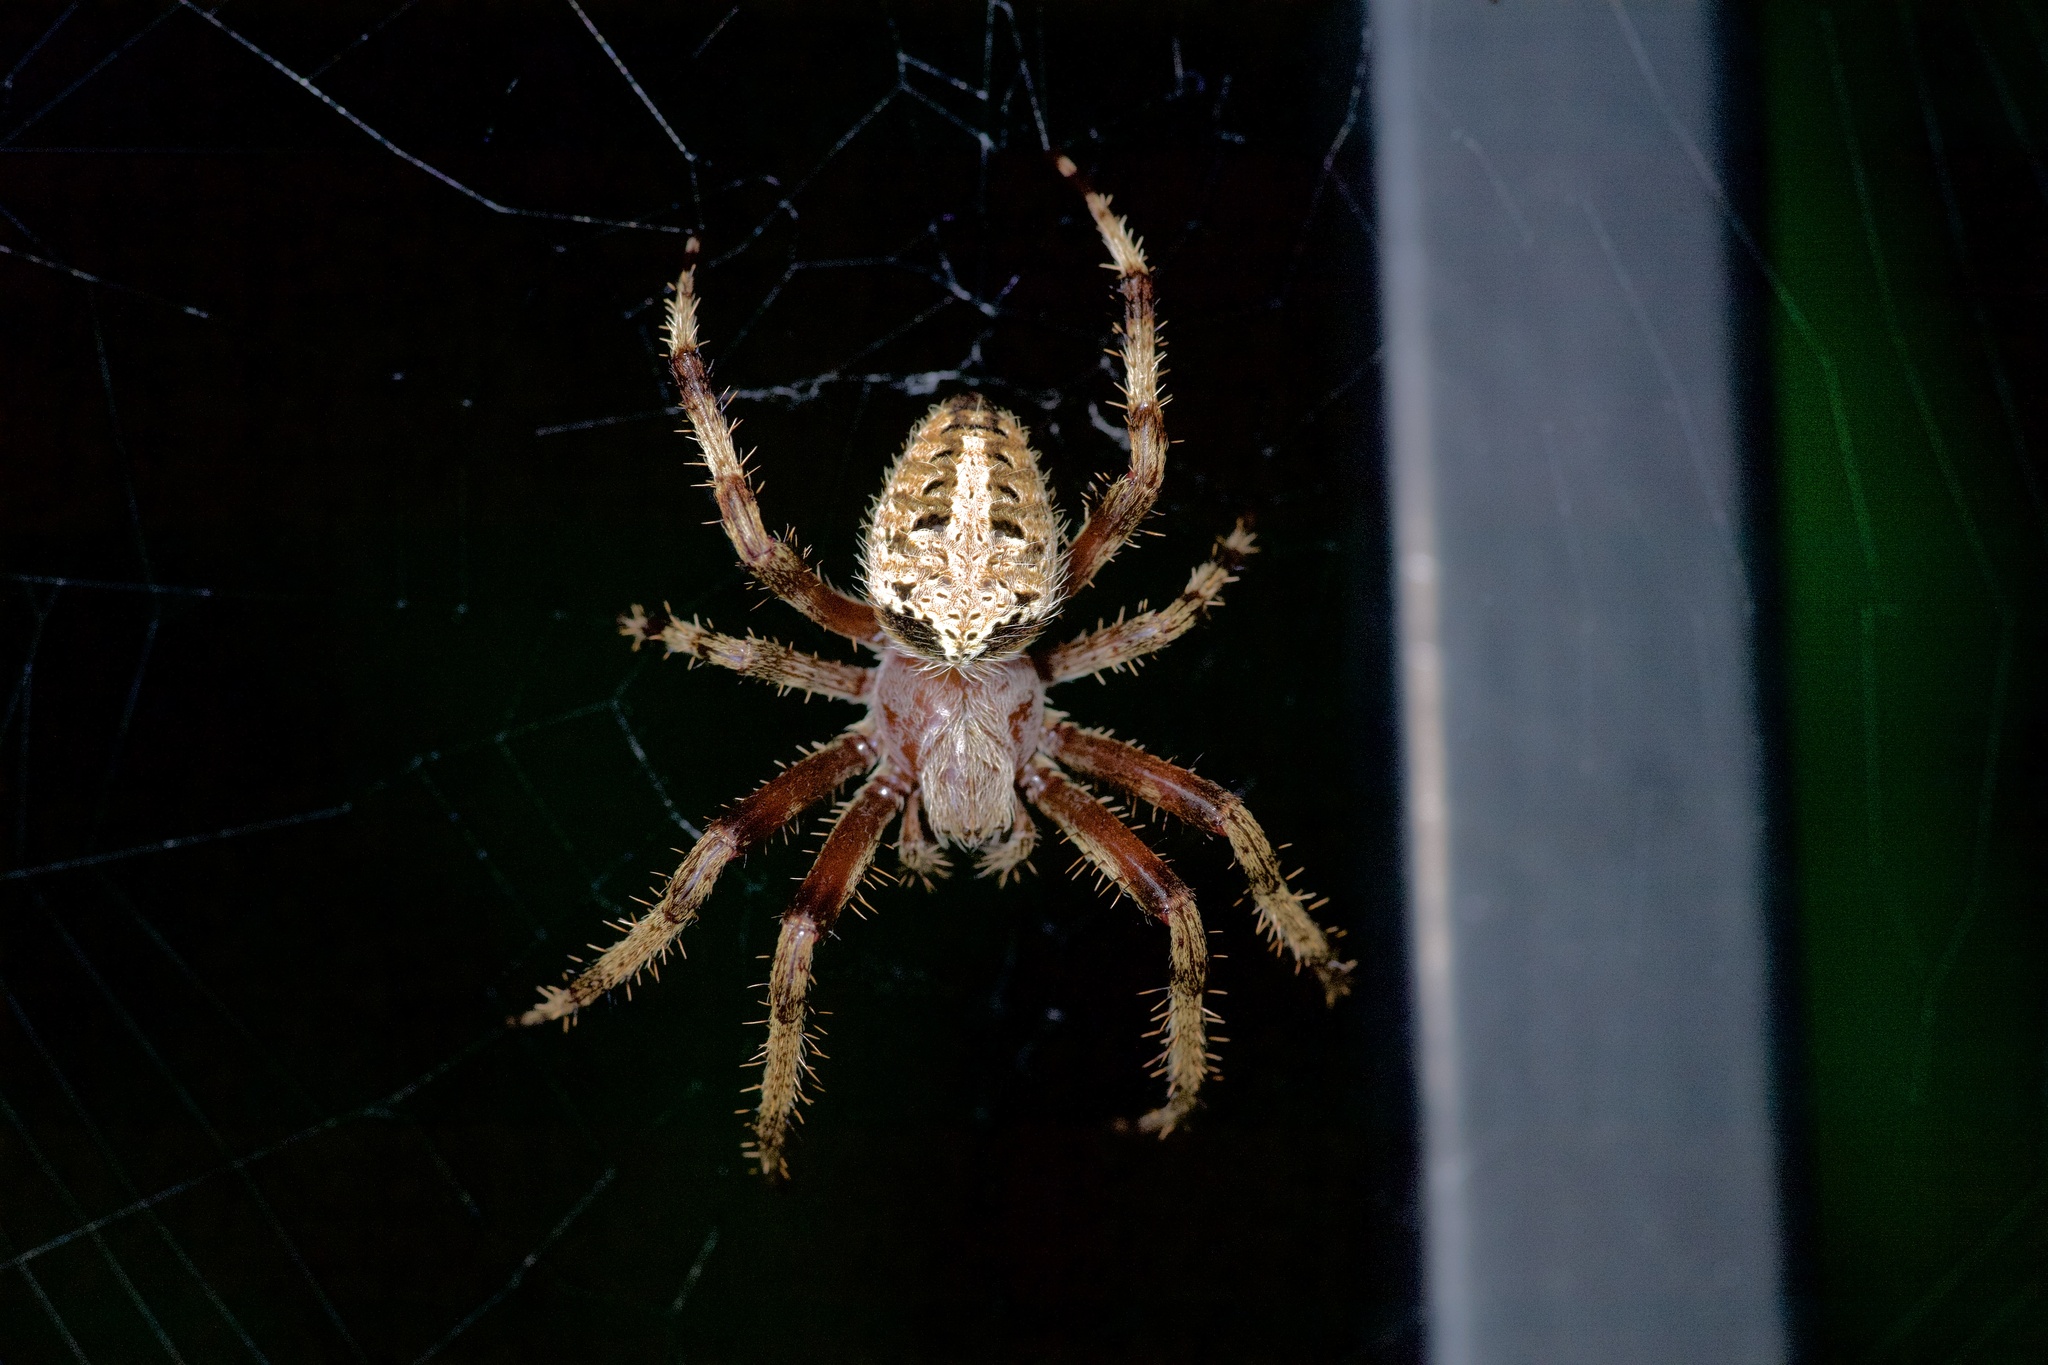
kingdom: Animalia
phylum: Arthropoda
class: Arachnida
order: Araneae
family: Araneidae
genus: Neoscona
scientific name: Neoscona crucifera
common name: Spotted orbweaver
